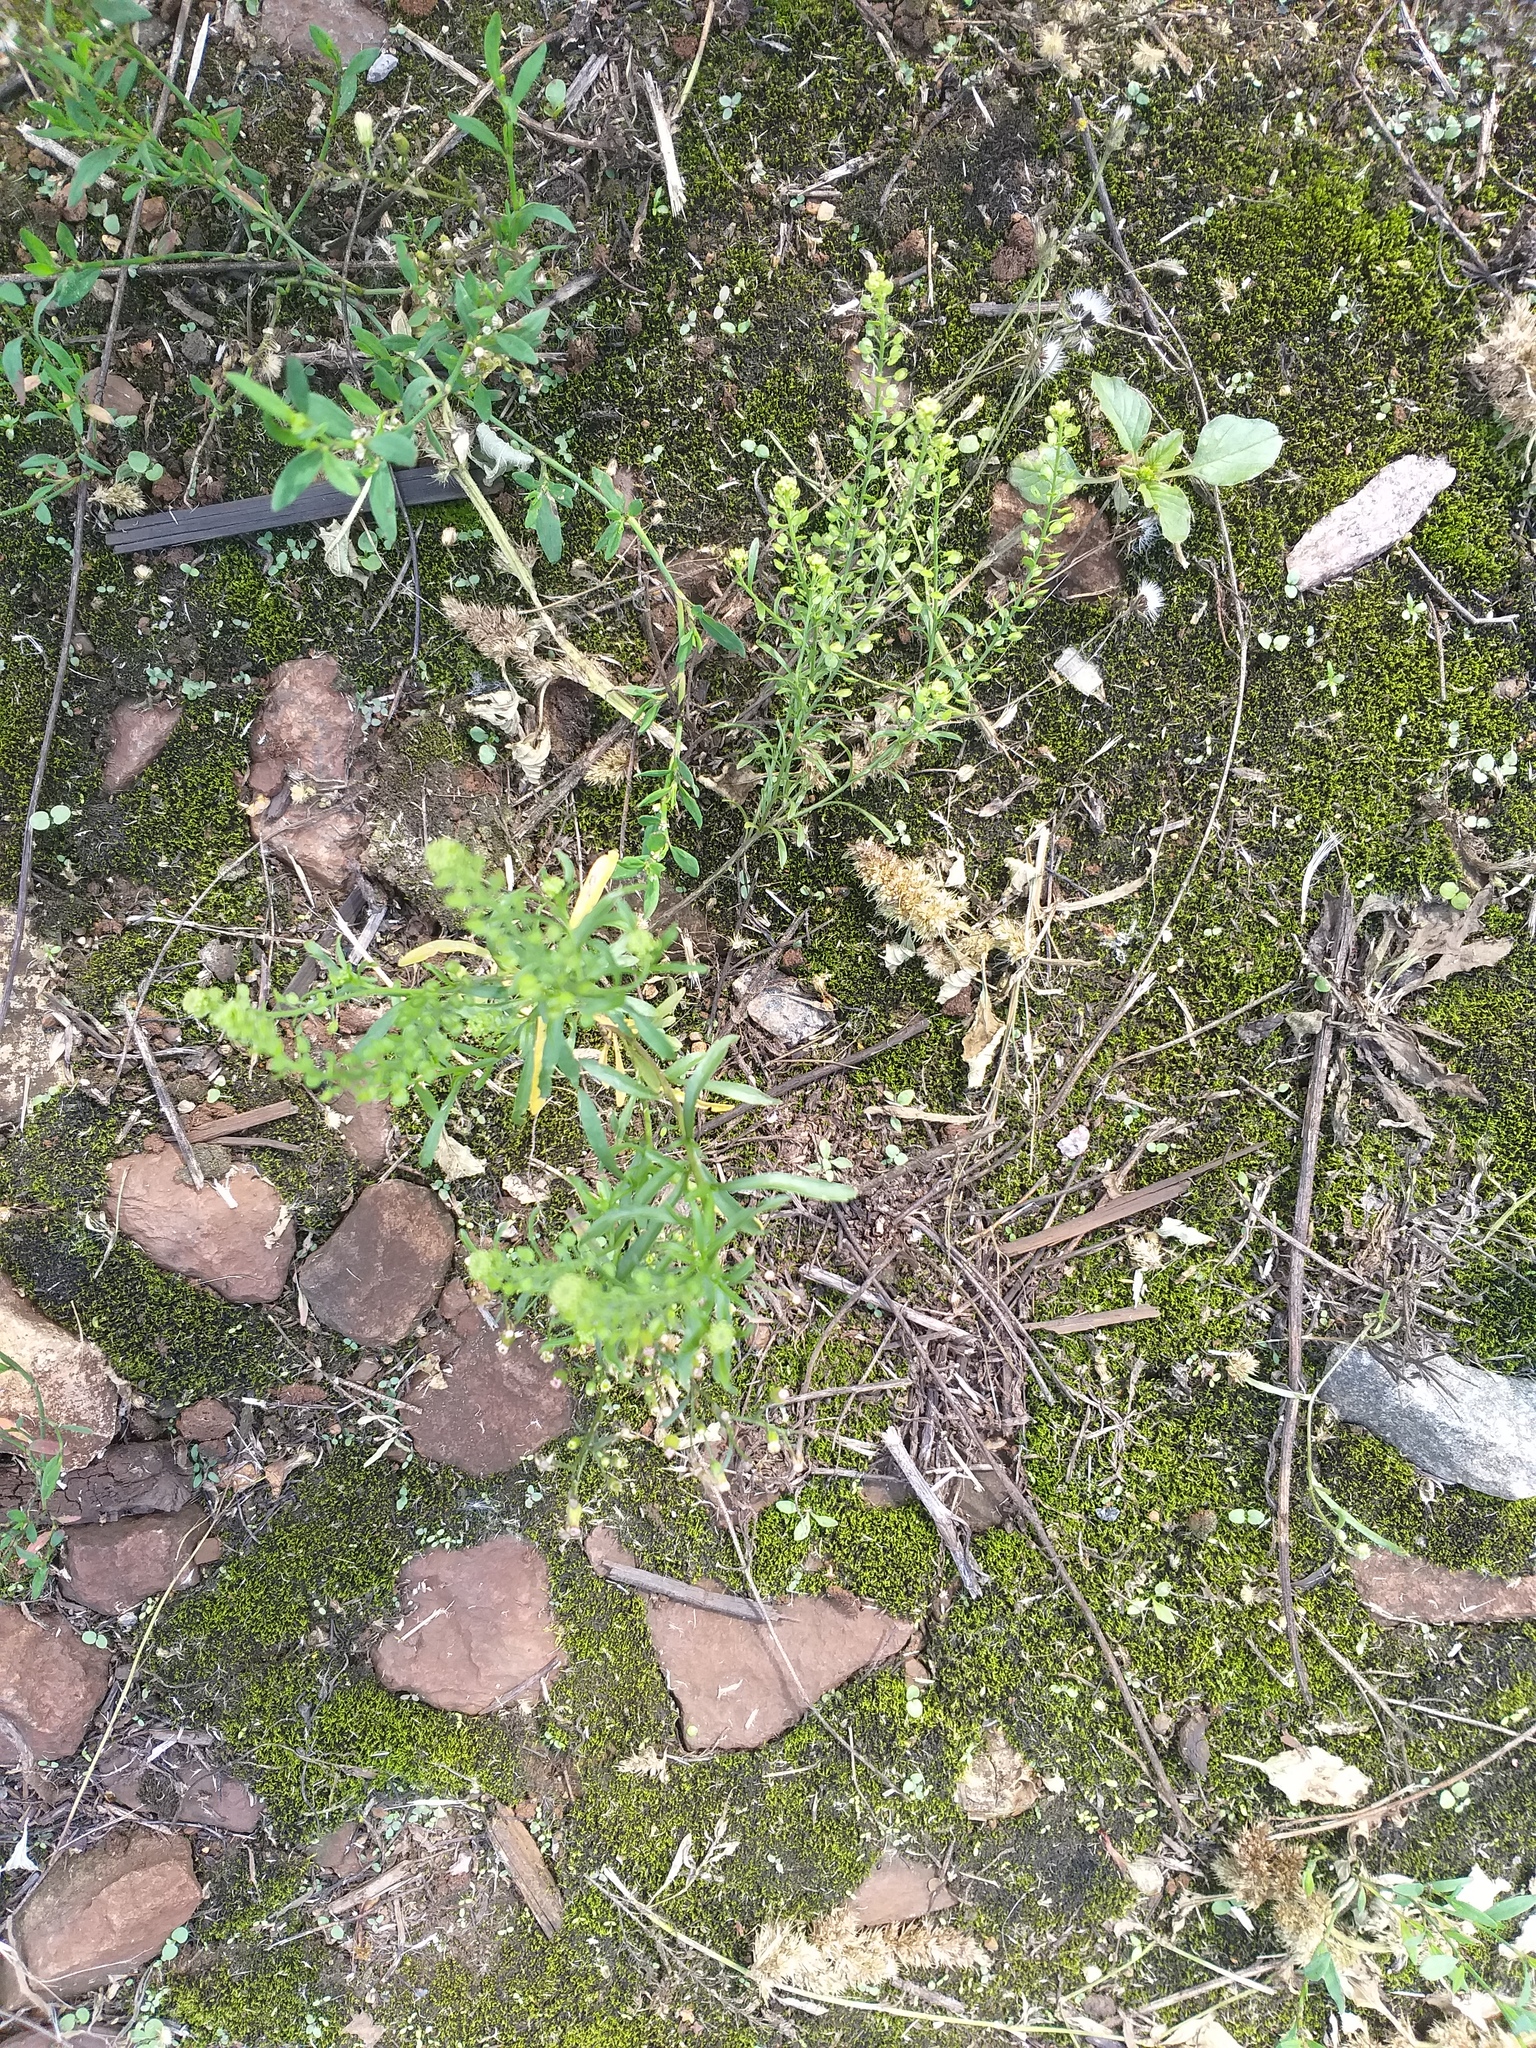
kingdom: Plantae
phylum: Tracheophyta
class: Magnoliopsida
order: Brassicales
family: Brassicaceae
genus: Lepidium
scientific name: Lepidium densiflorum
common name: Miner's pepperwort
